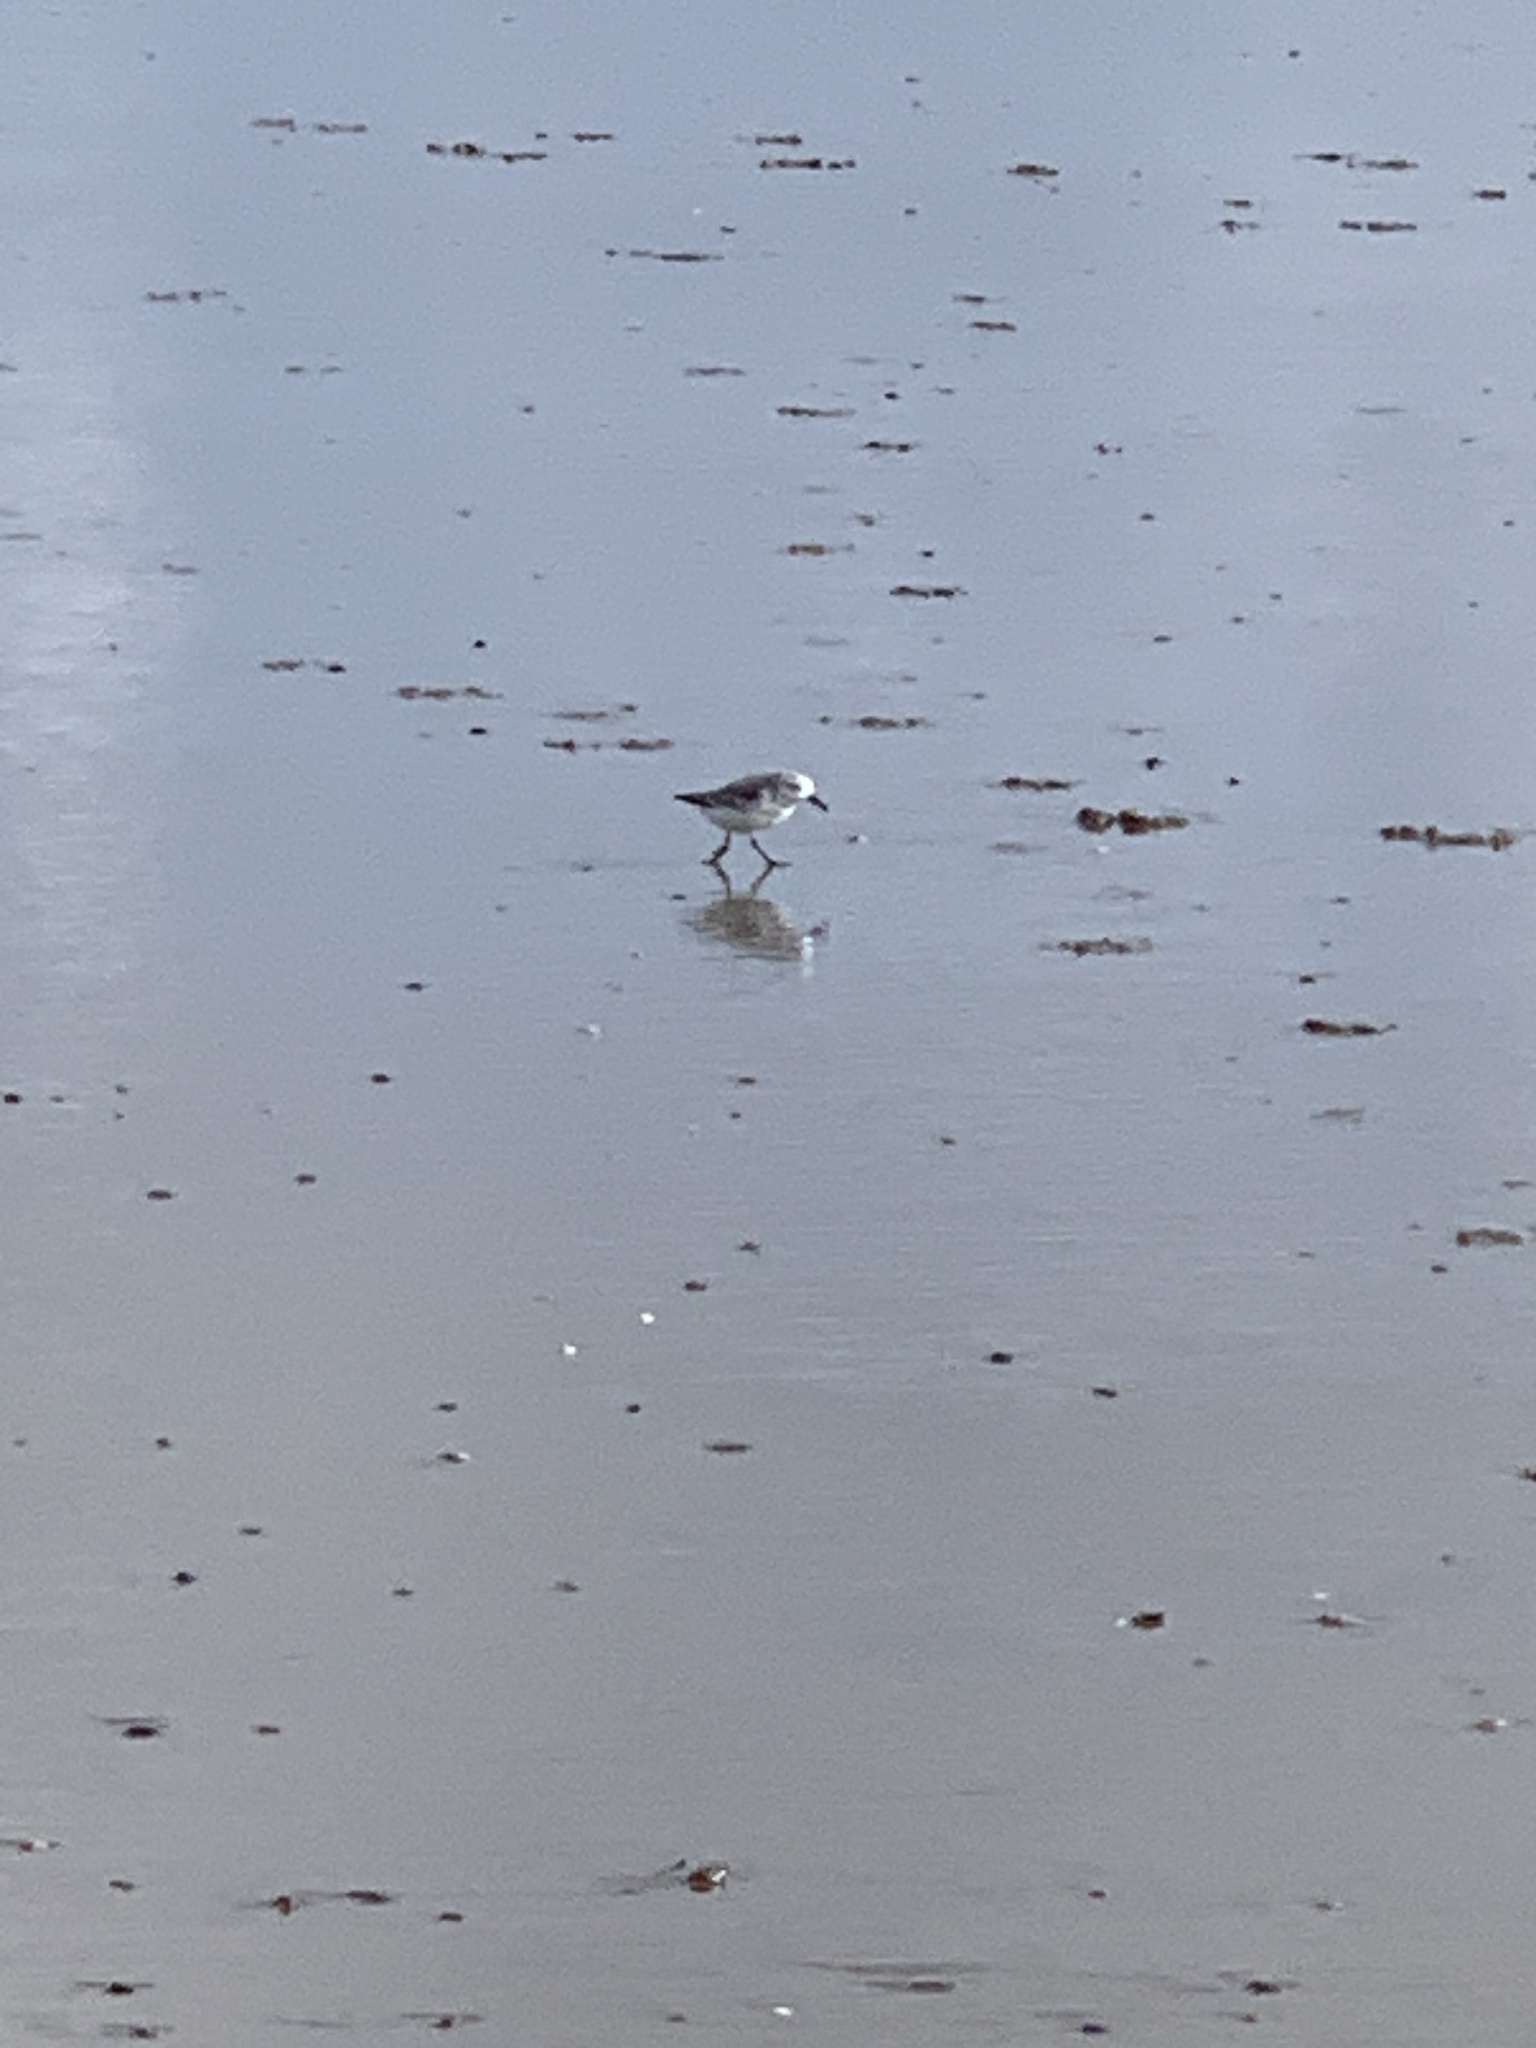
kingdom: Animalia
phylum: Chordata
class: Aves
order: Charadriiformes
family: Scolopacidae
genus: Calidris
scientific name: Calidris alba
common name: Sanderling
